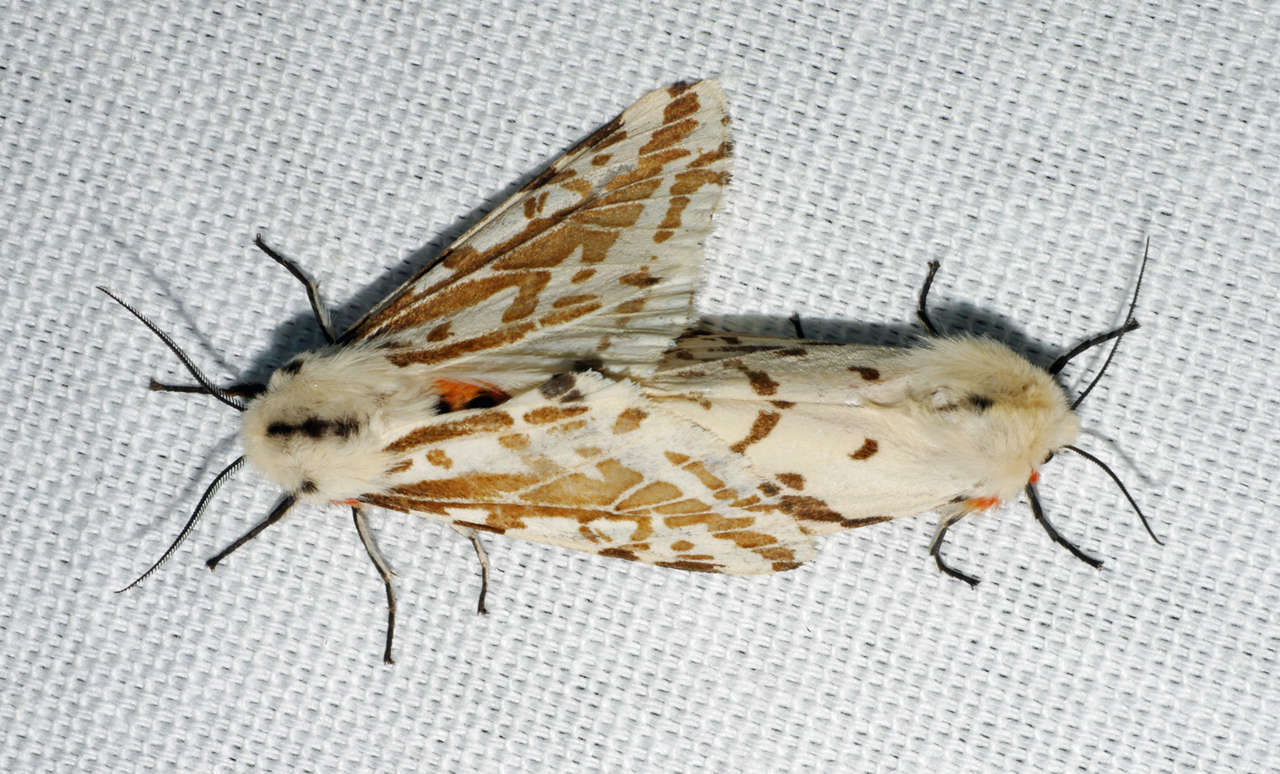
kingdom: Animalia
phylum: Arthropoda
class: Insecta
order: Lepidoptera
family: Erebidae
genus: Ardices
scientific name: Ardices glatignyi
